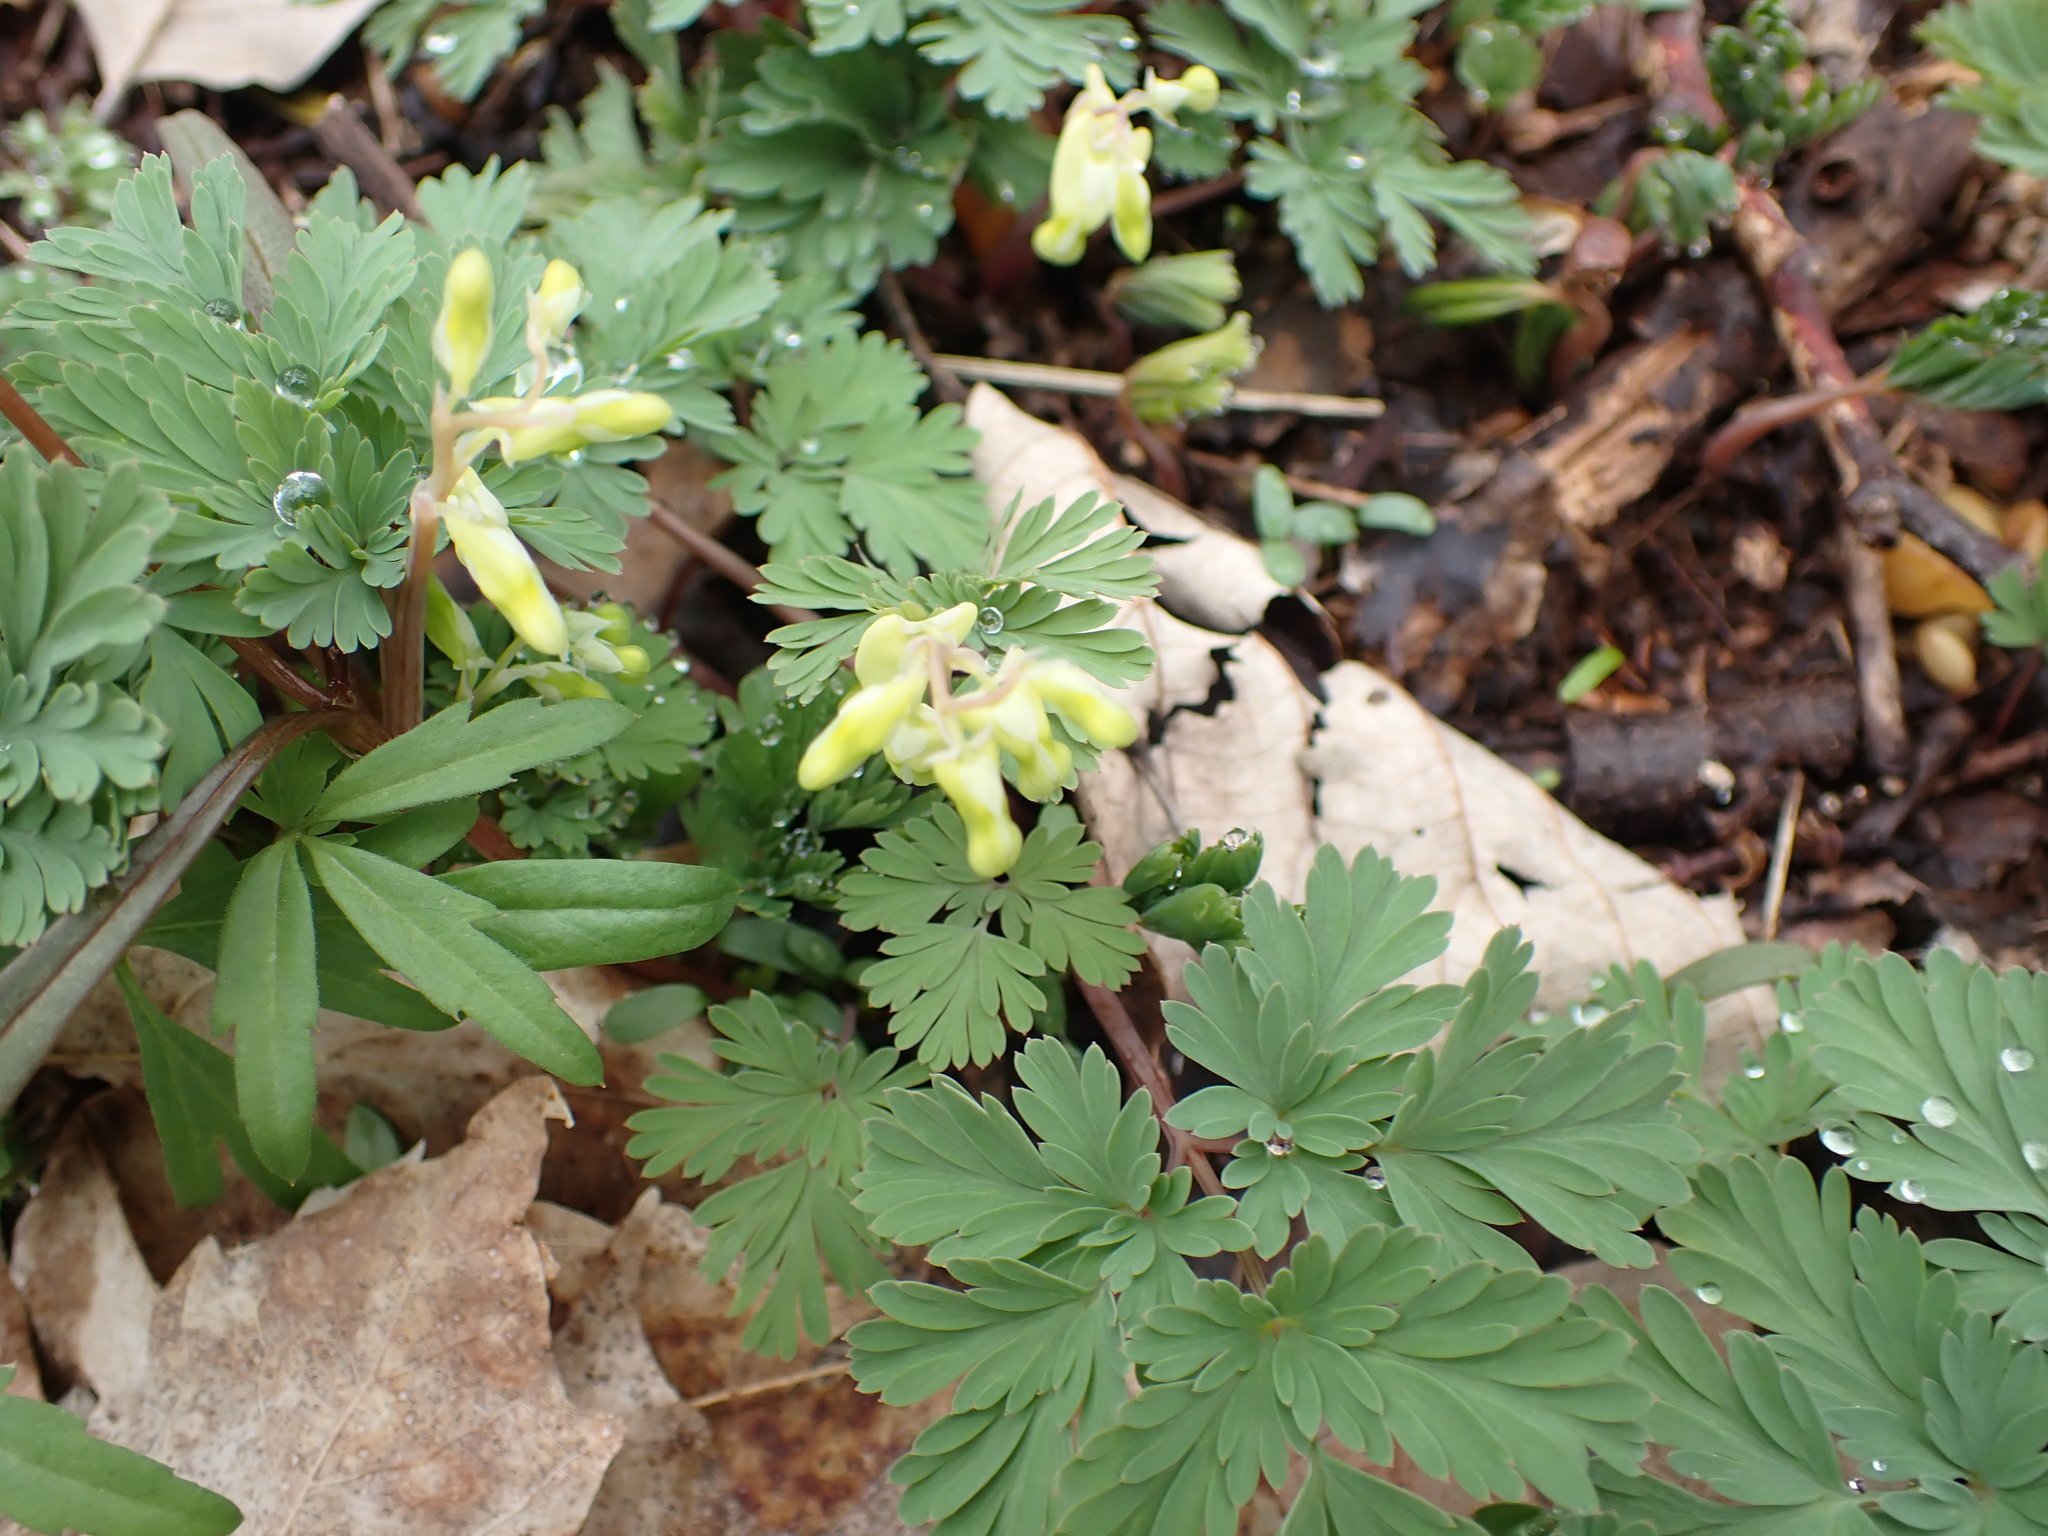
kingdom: Plantae
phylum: Tracheophyta
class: Magnoliopsida
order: Ranunculales
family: Papaveraceae
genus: Dicentra
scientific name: Dicentra cucullaria
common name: Dutchman's breeches
